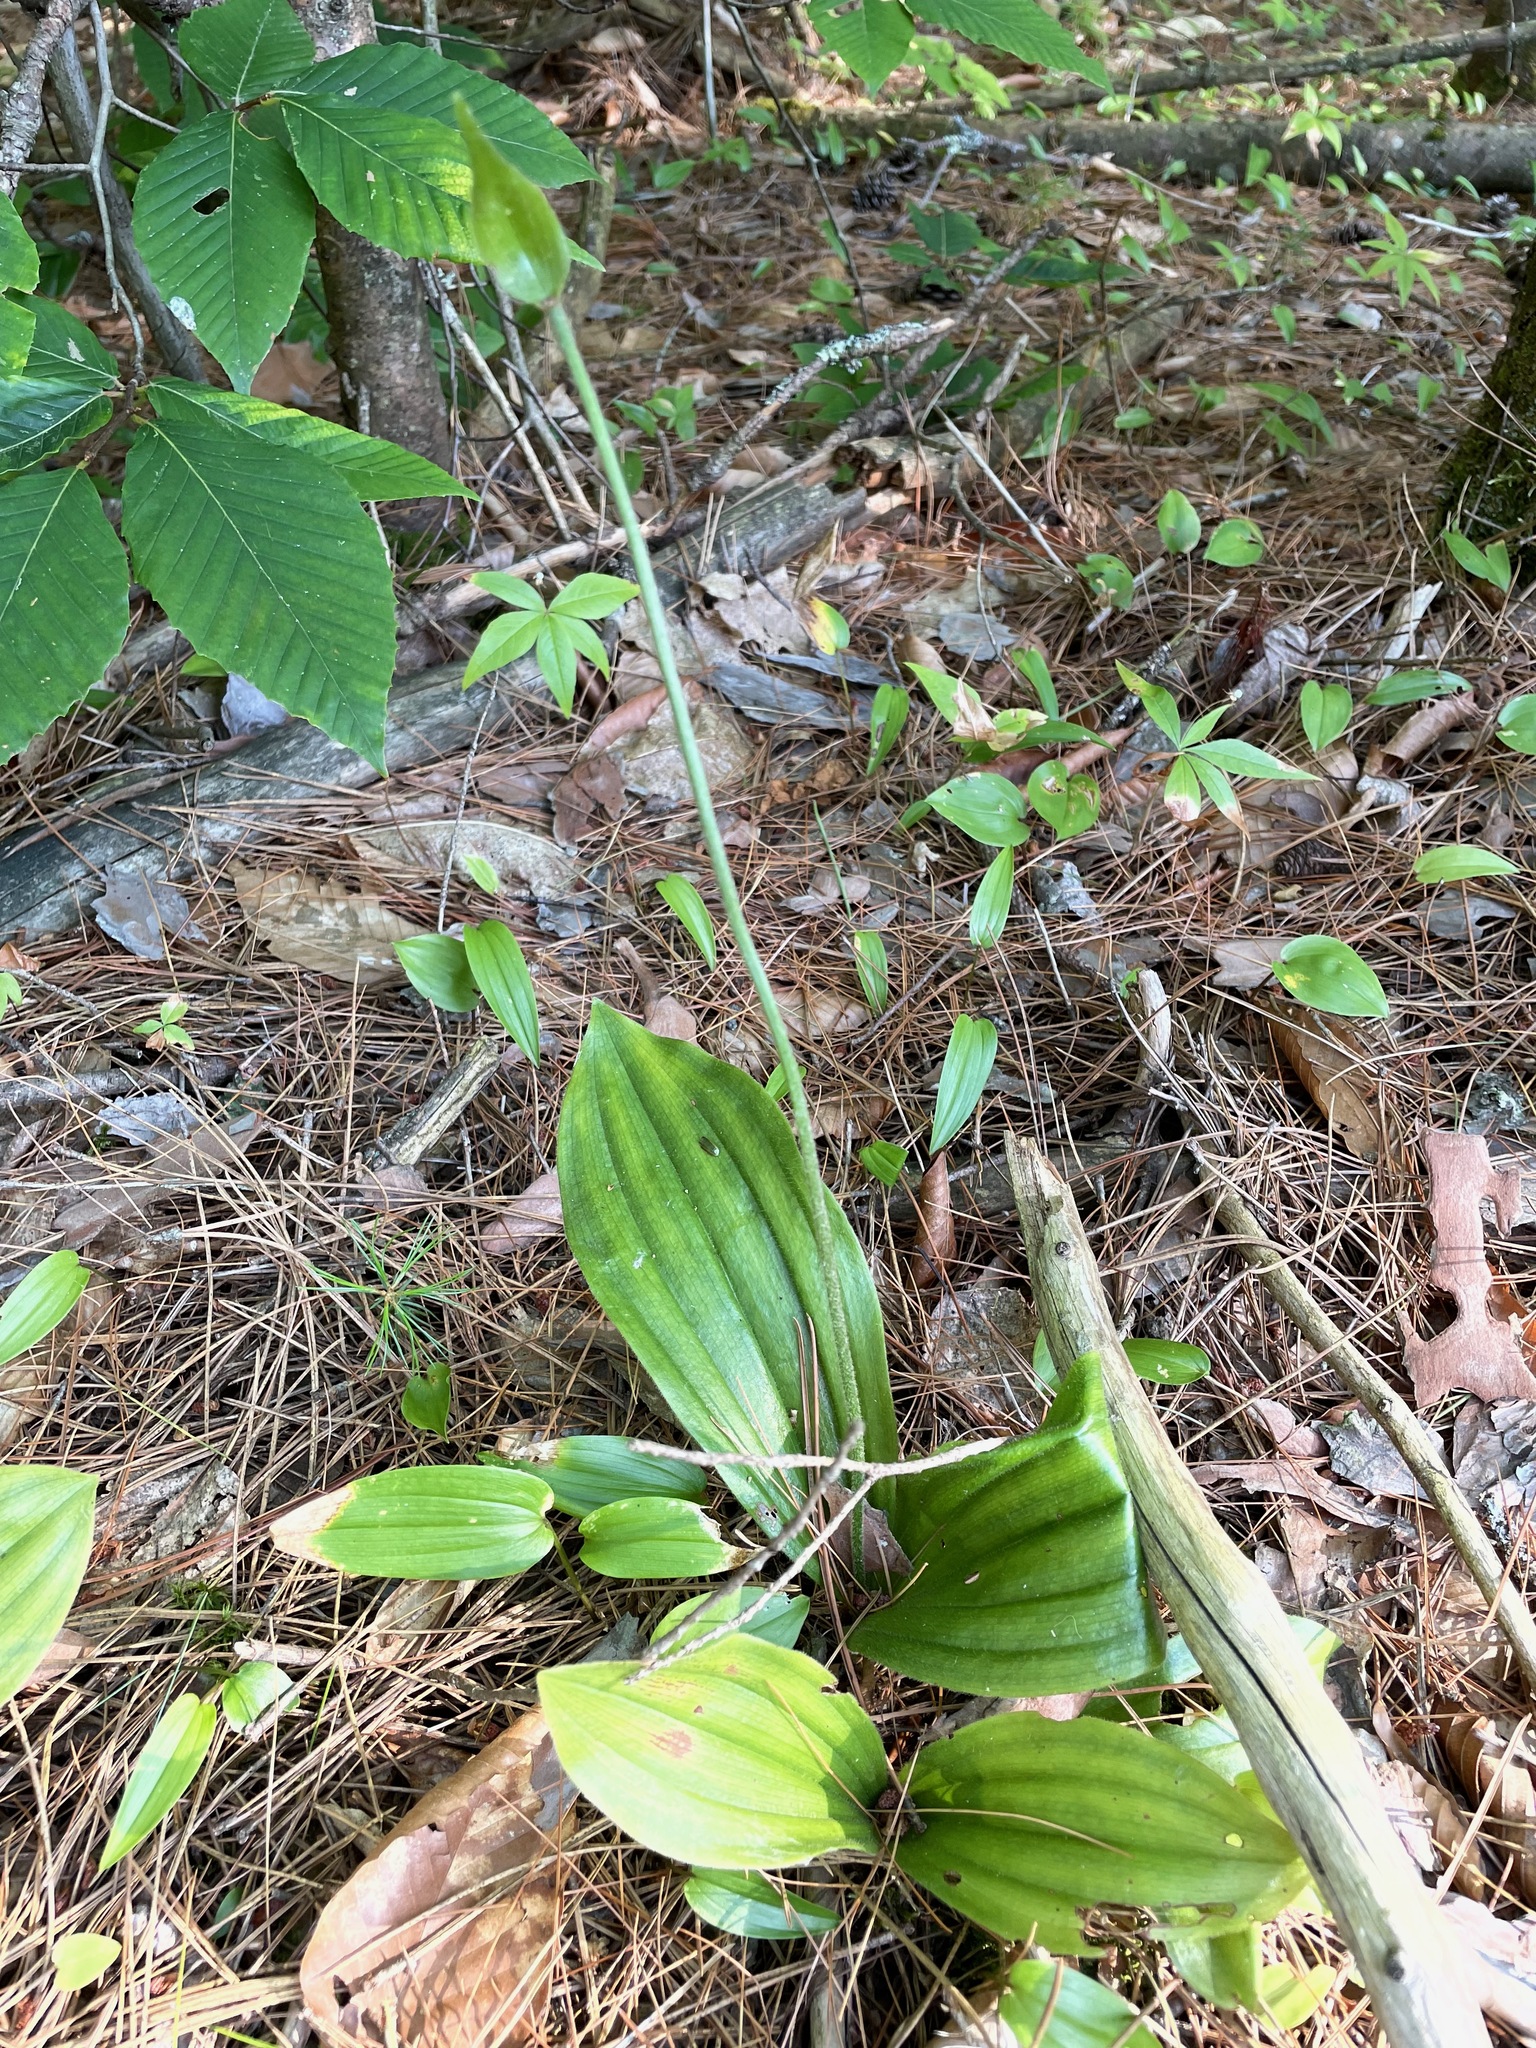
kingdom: Plantae
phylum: Tracheophyta
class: Liliopsida
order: Asparagales
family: Orchidaceae
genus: Cypripedium
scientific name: Cypripedium acaule
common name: Pink lady's-slipper
